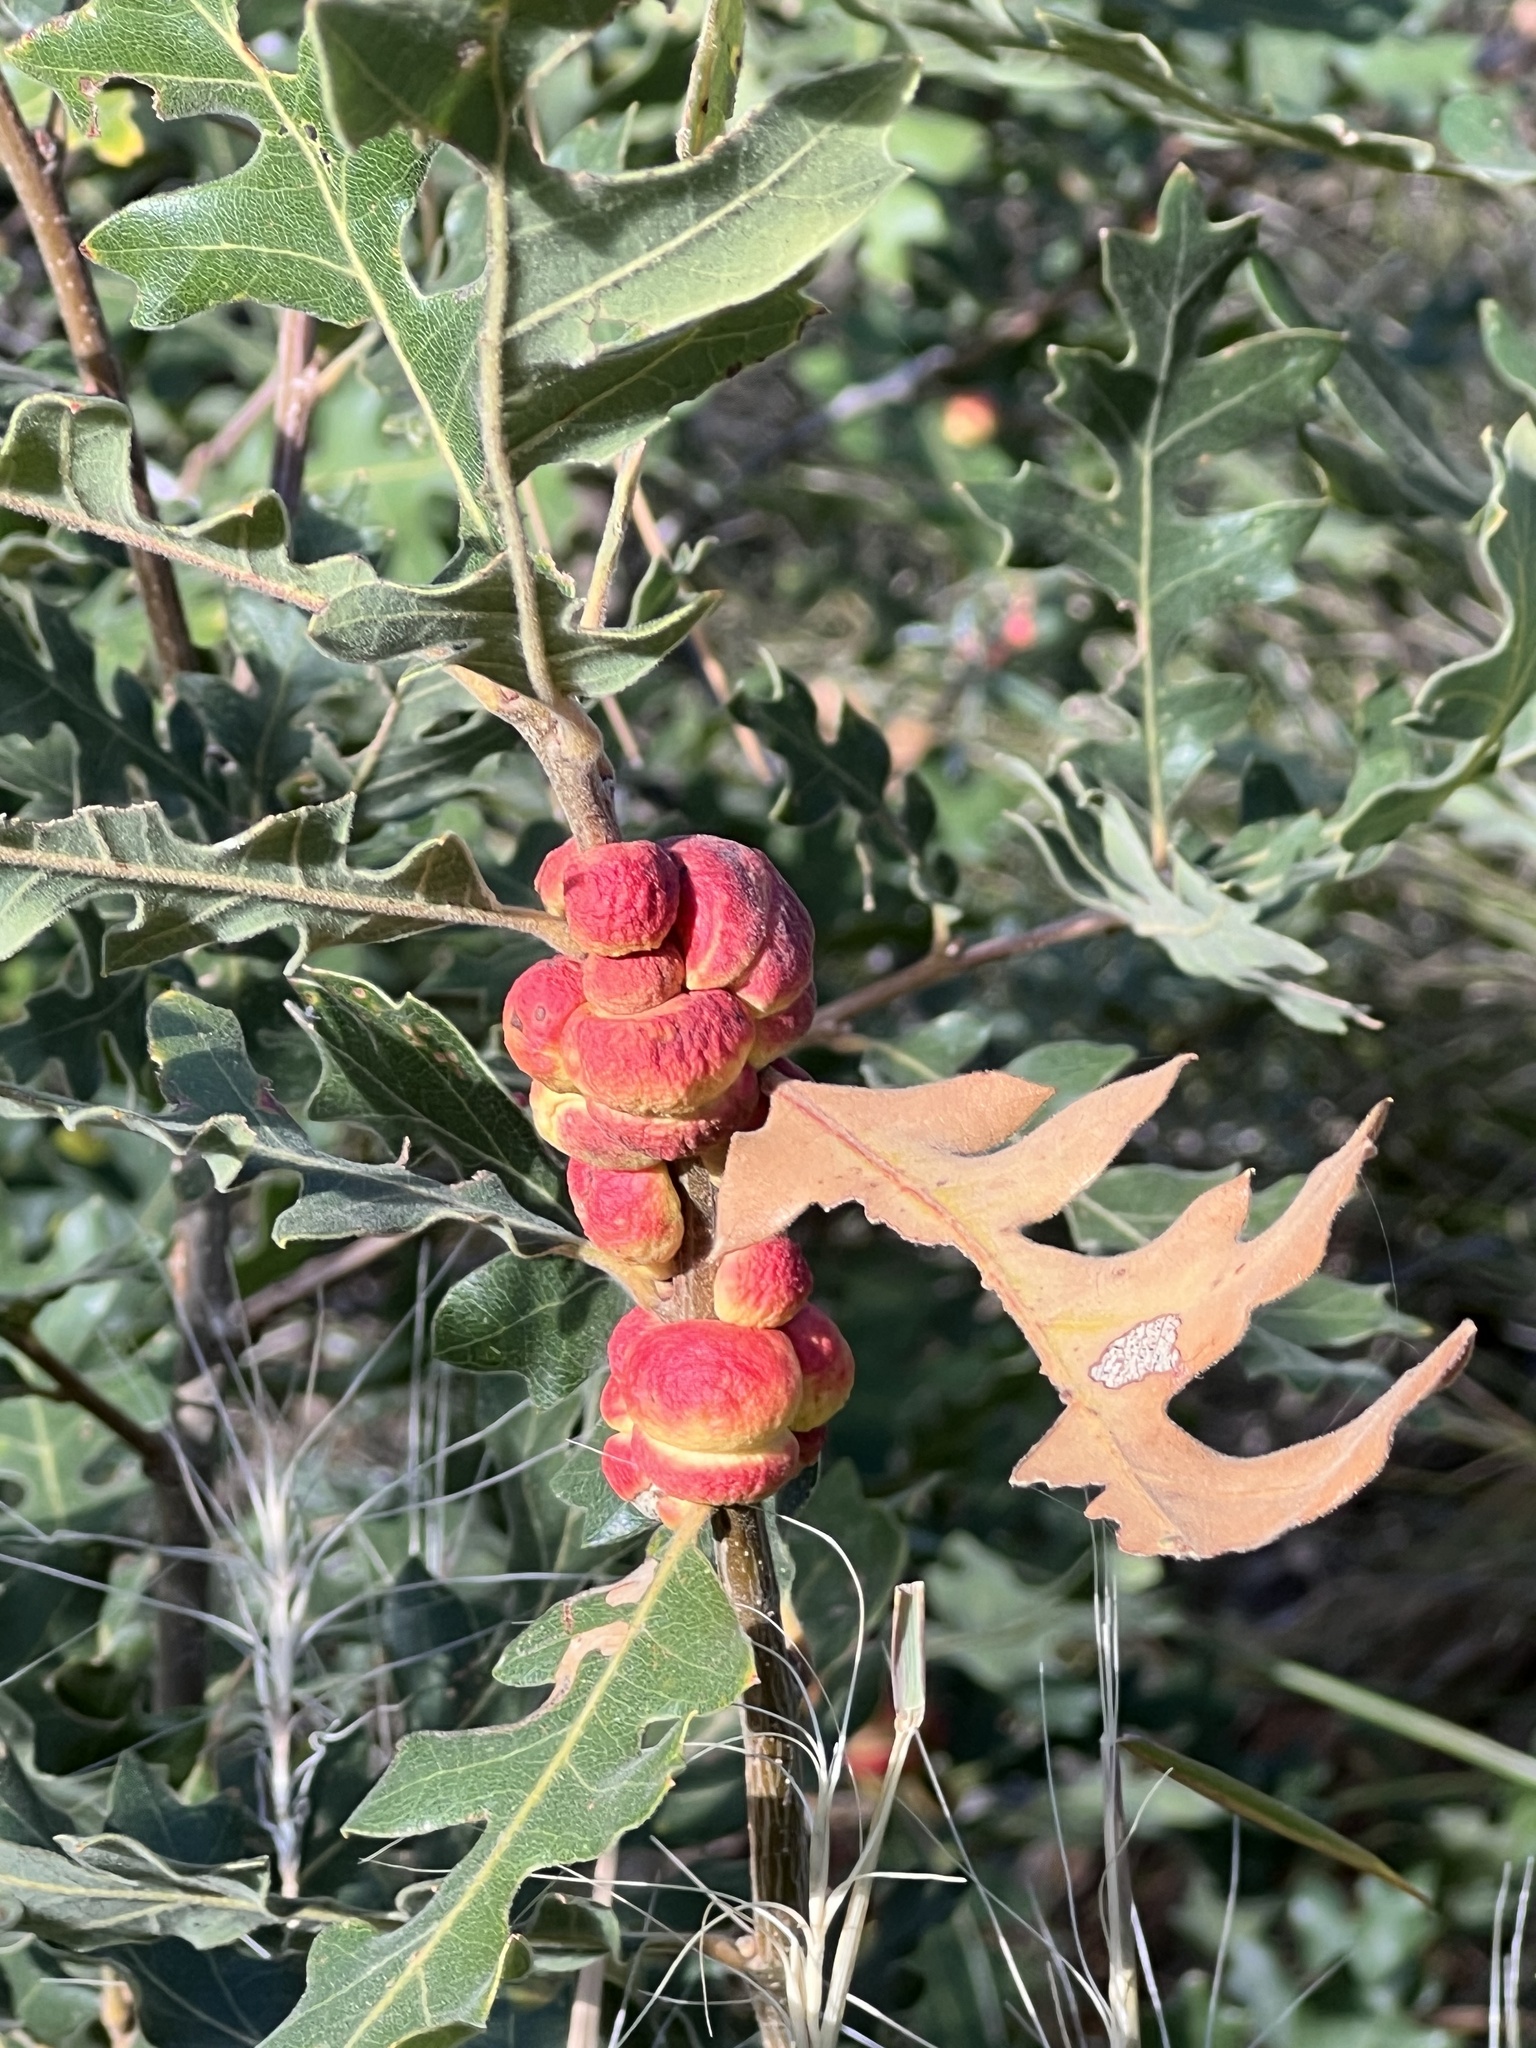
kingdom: Animalia
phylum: Arthropoda
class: Insecta
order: Hymenoptera
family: Cynipidae
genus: Disholcaspis
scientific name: Disholcaspis
